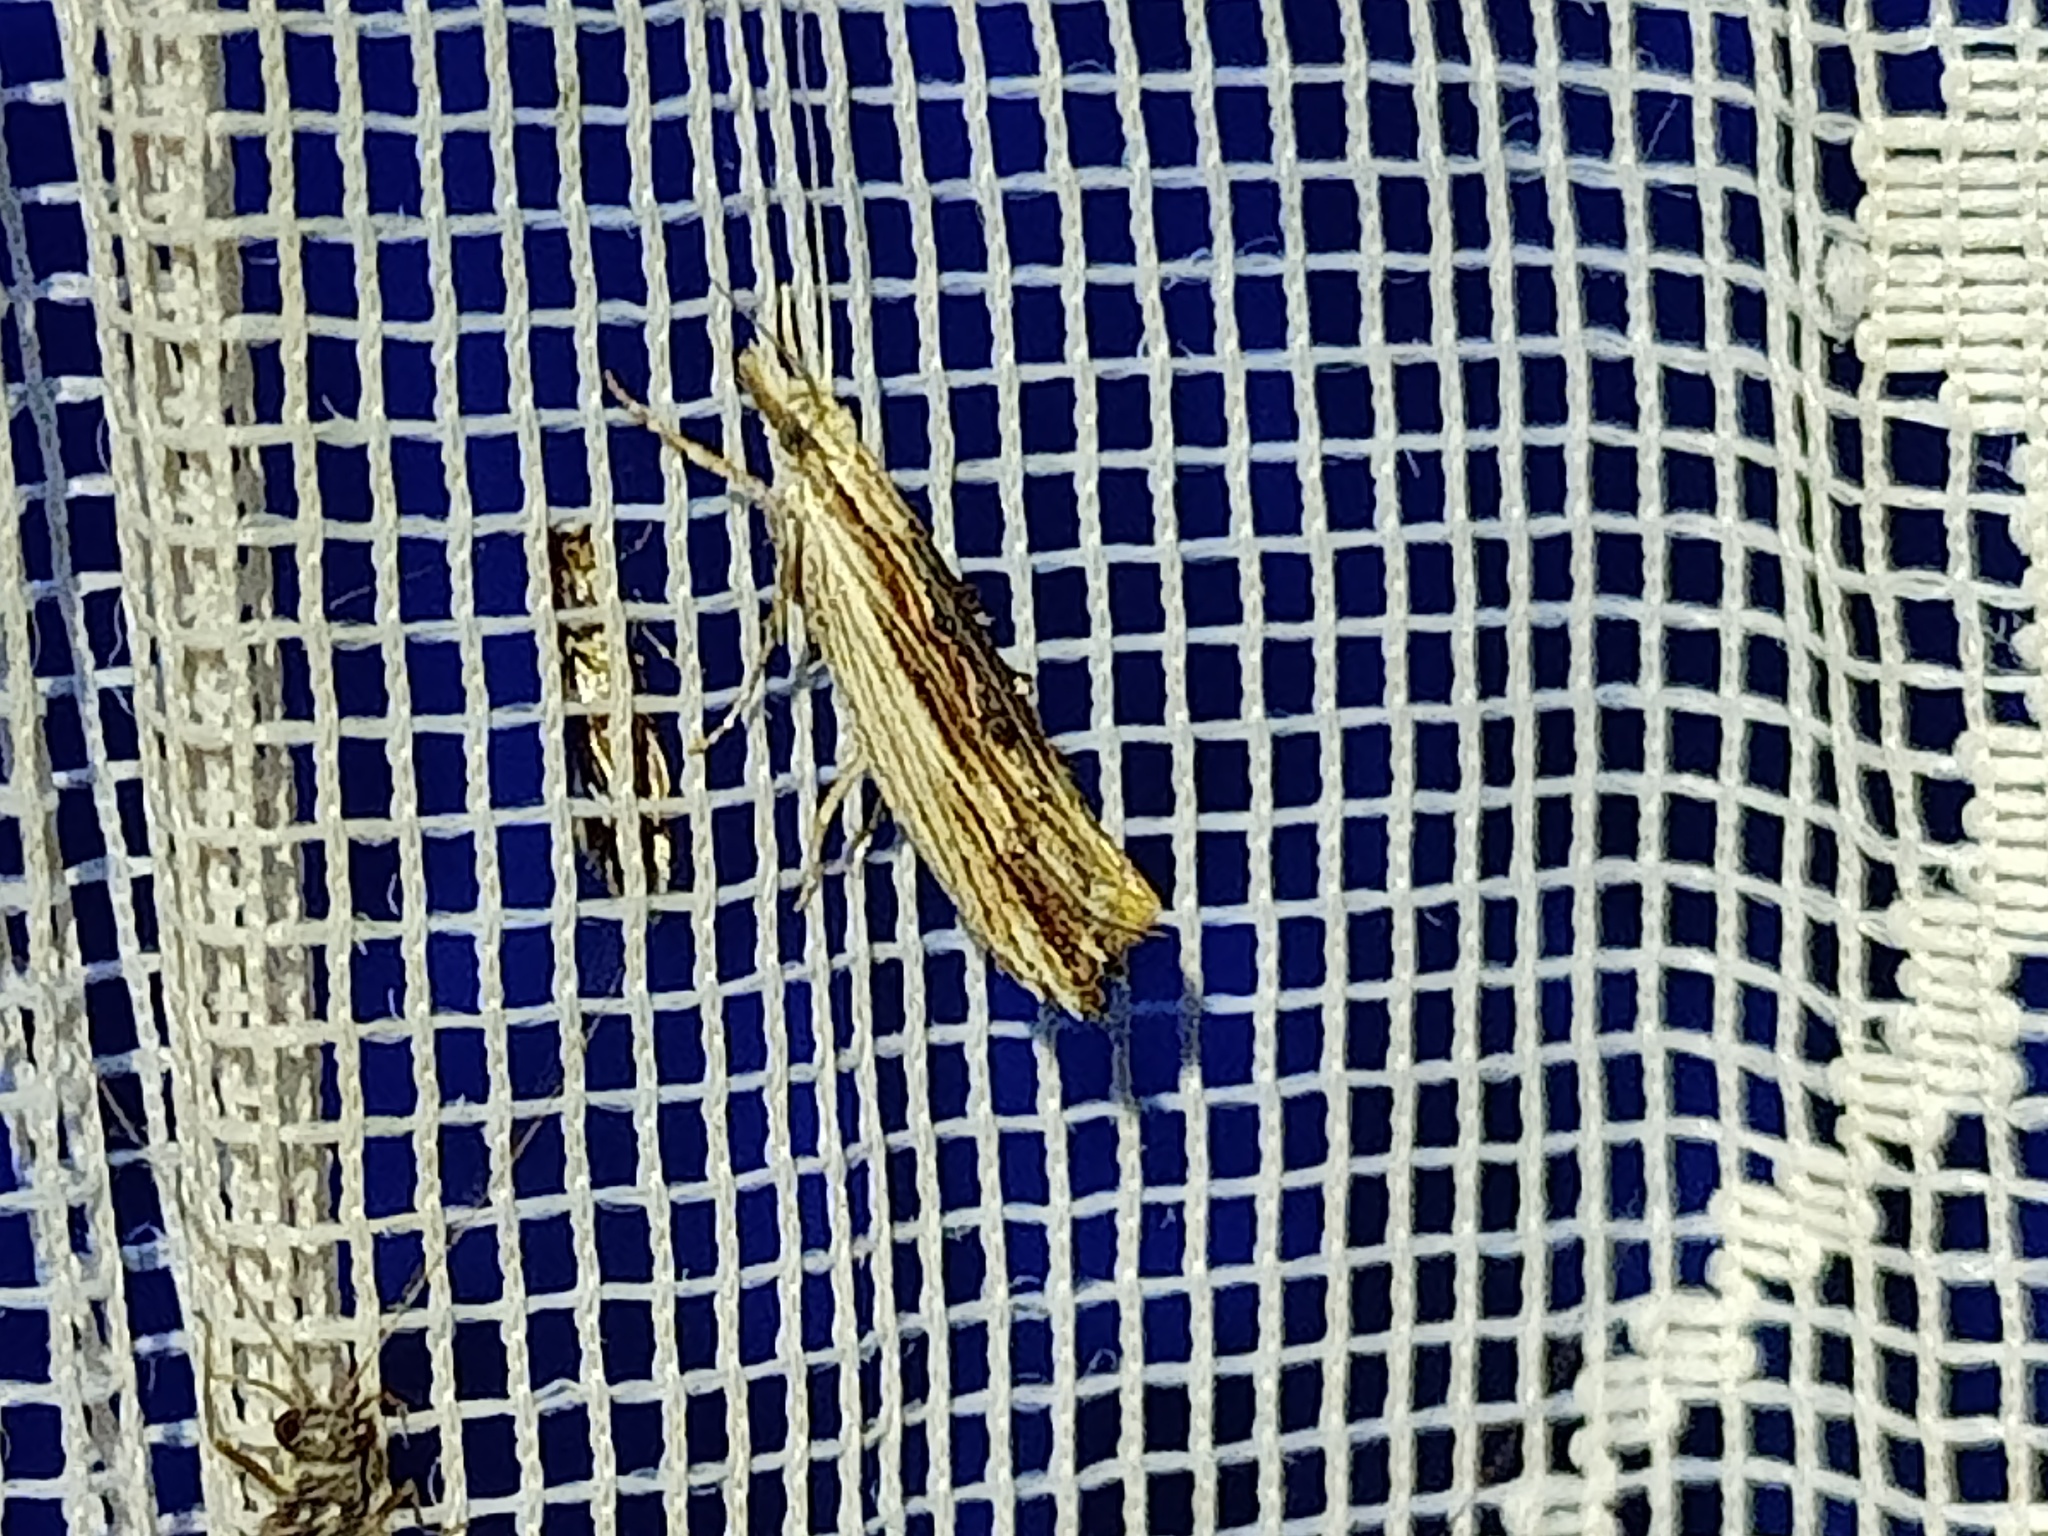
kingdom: Animalia
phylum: Arthropoda
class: Insecta
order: Lepidoptera
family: Ypsolophidae
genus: Ypsolopha
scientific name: Ypsolopha scabrella
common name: Wainscot smudge
